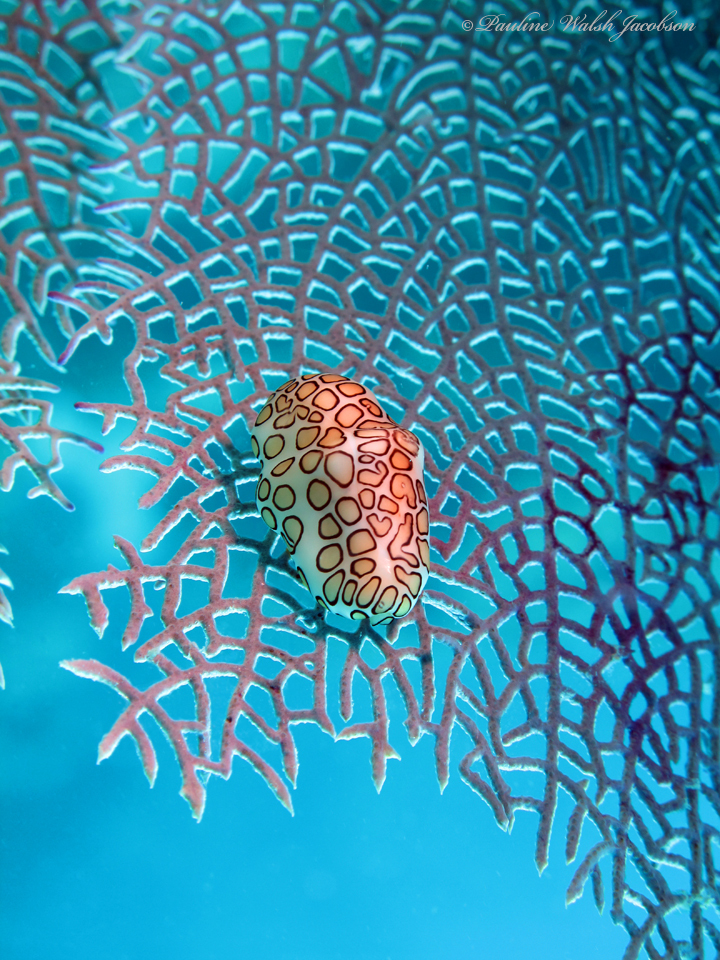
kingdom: Animalia
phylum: Mollusca
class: Gastropoda
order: Littorinimorpha
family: Ovulidae
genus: Cyphoma
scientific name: Cyphoma gibbosum
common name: Flamingo tongue
